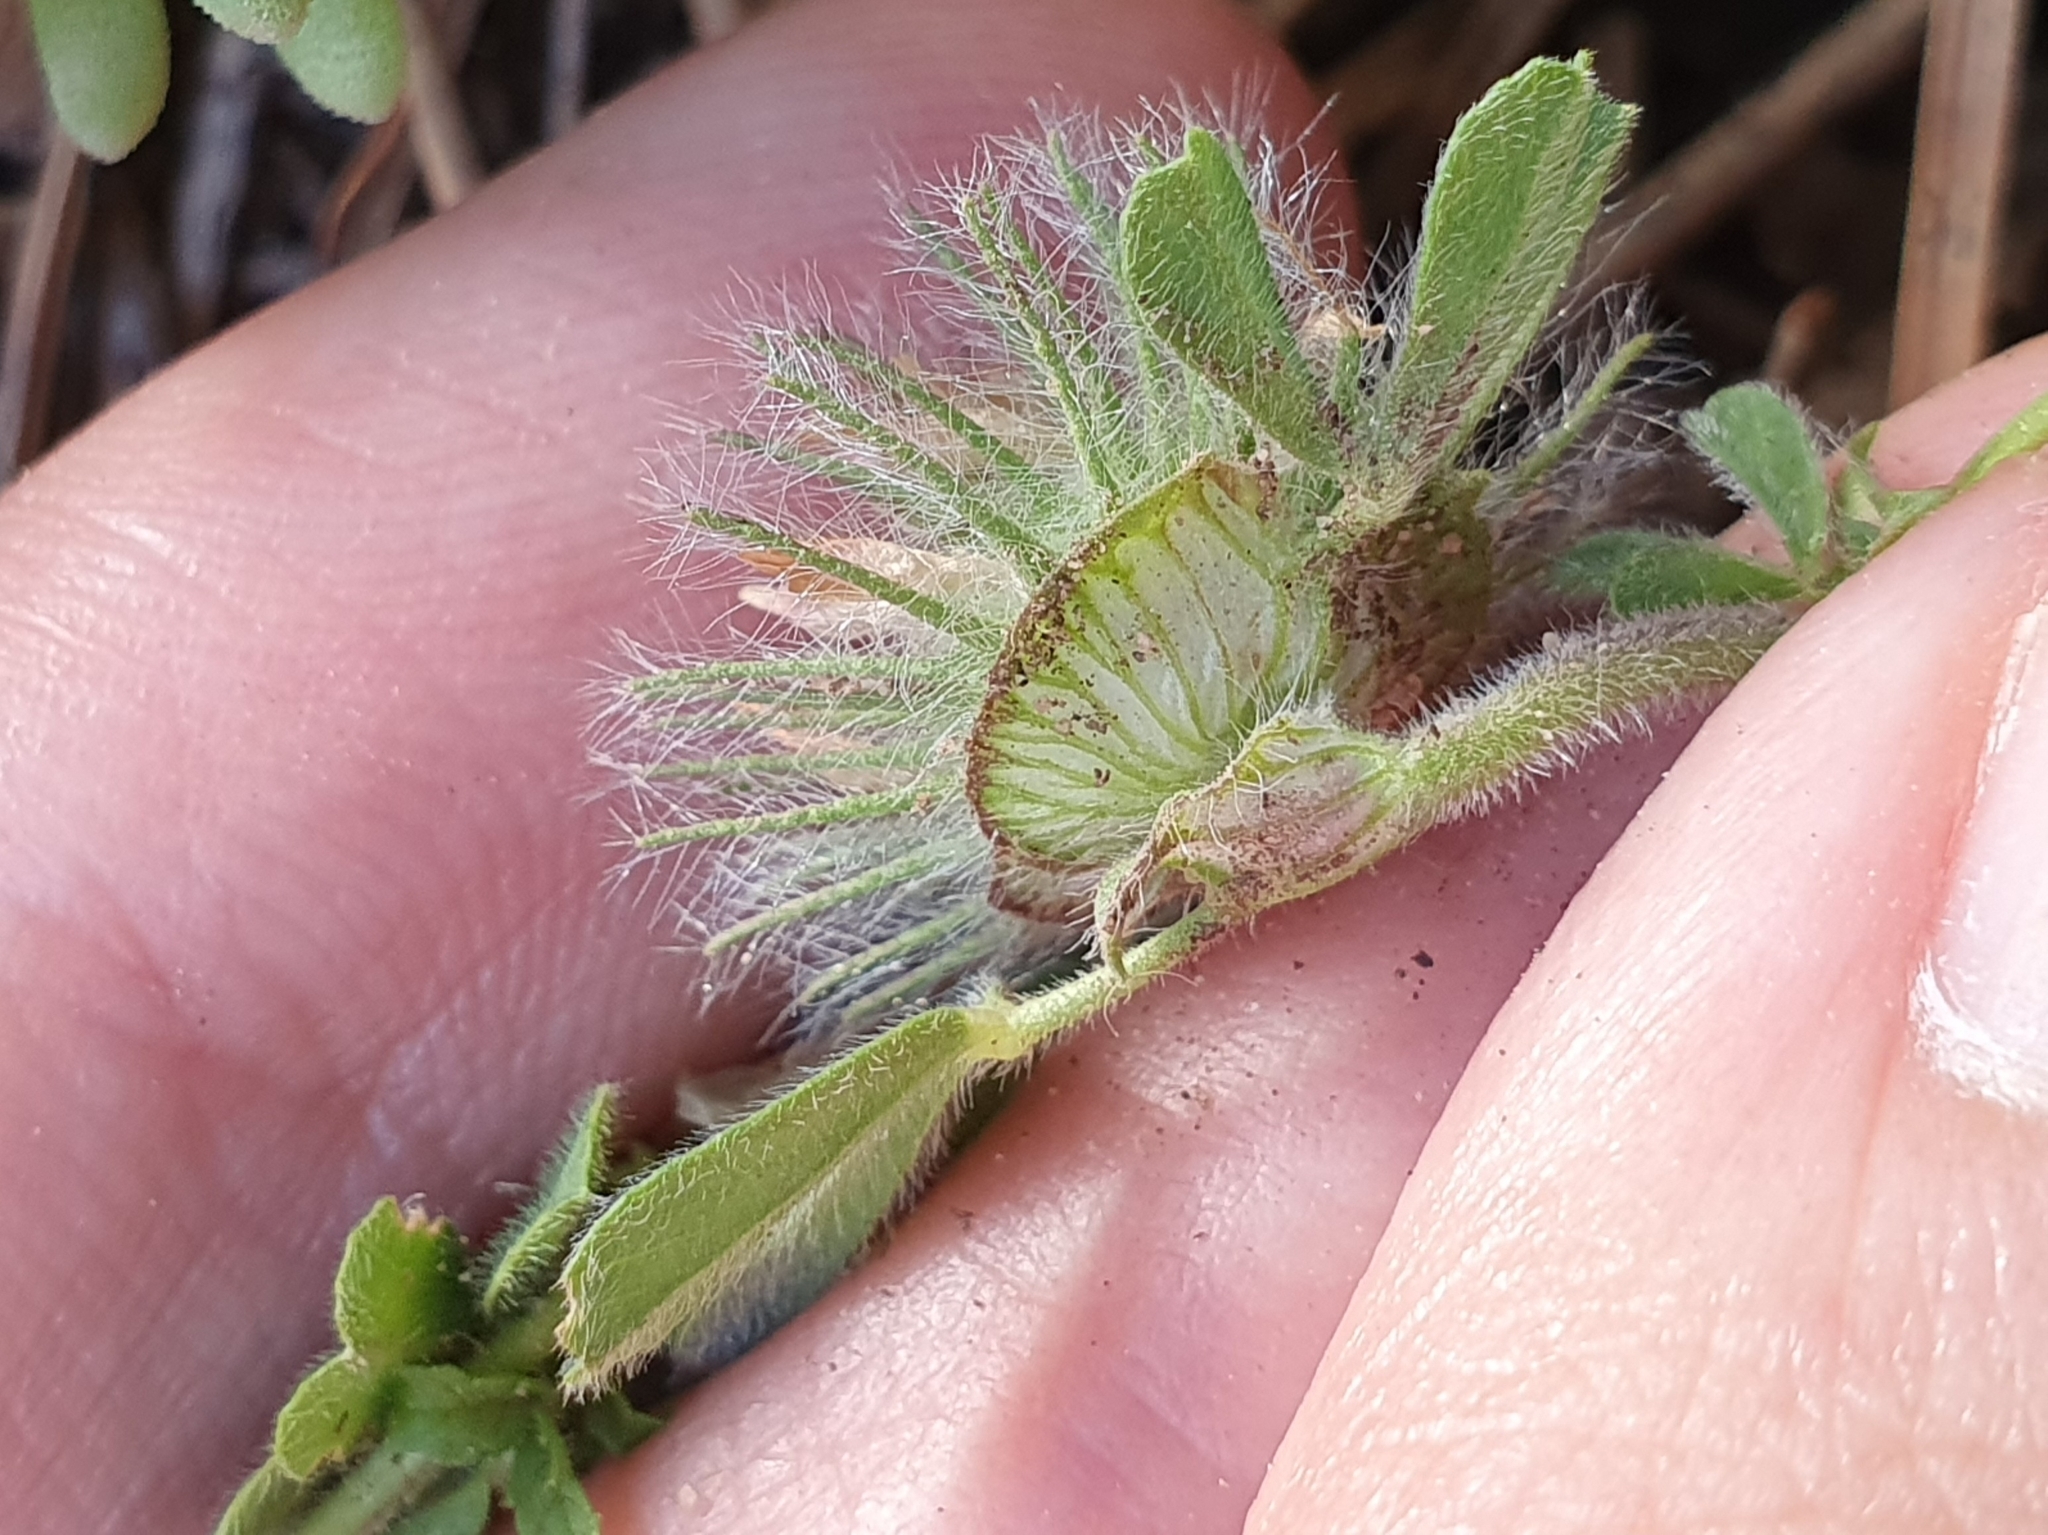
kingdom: Plantae
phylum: Tracheophyta
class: Magnoliopsida
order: Fabales
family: Fabaceae
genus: Trifolium
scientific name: Trifolium cherleri
